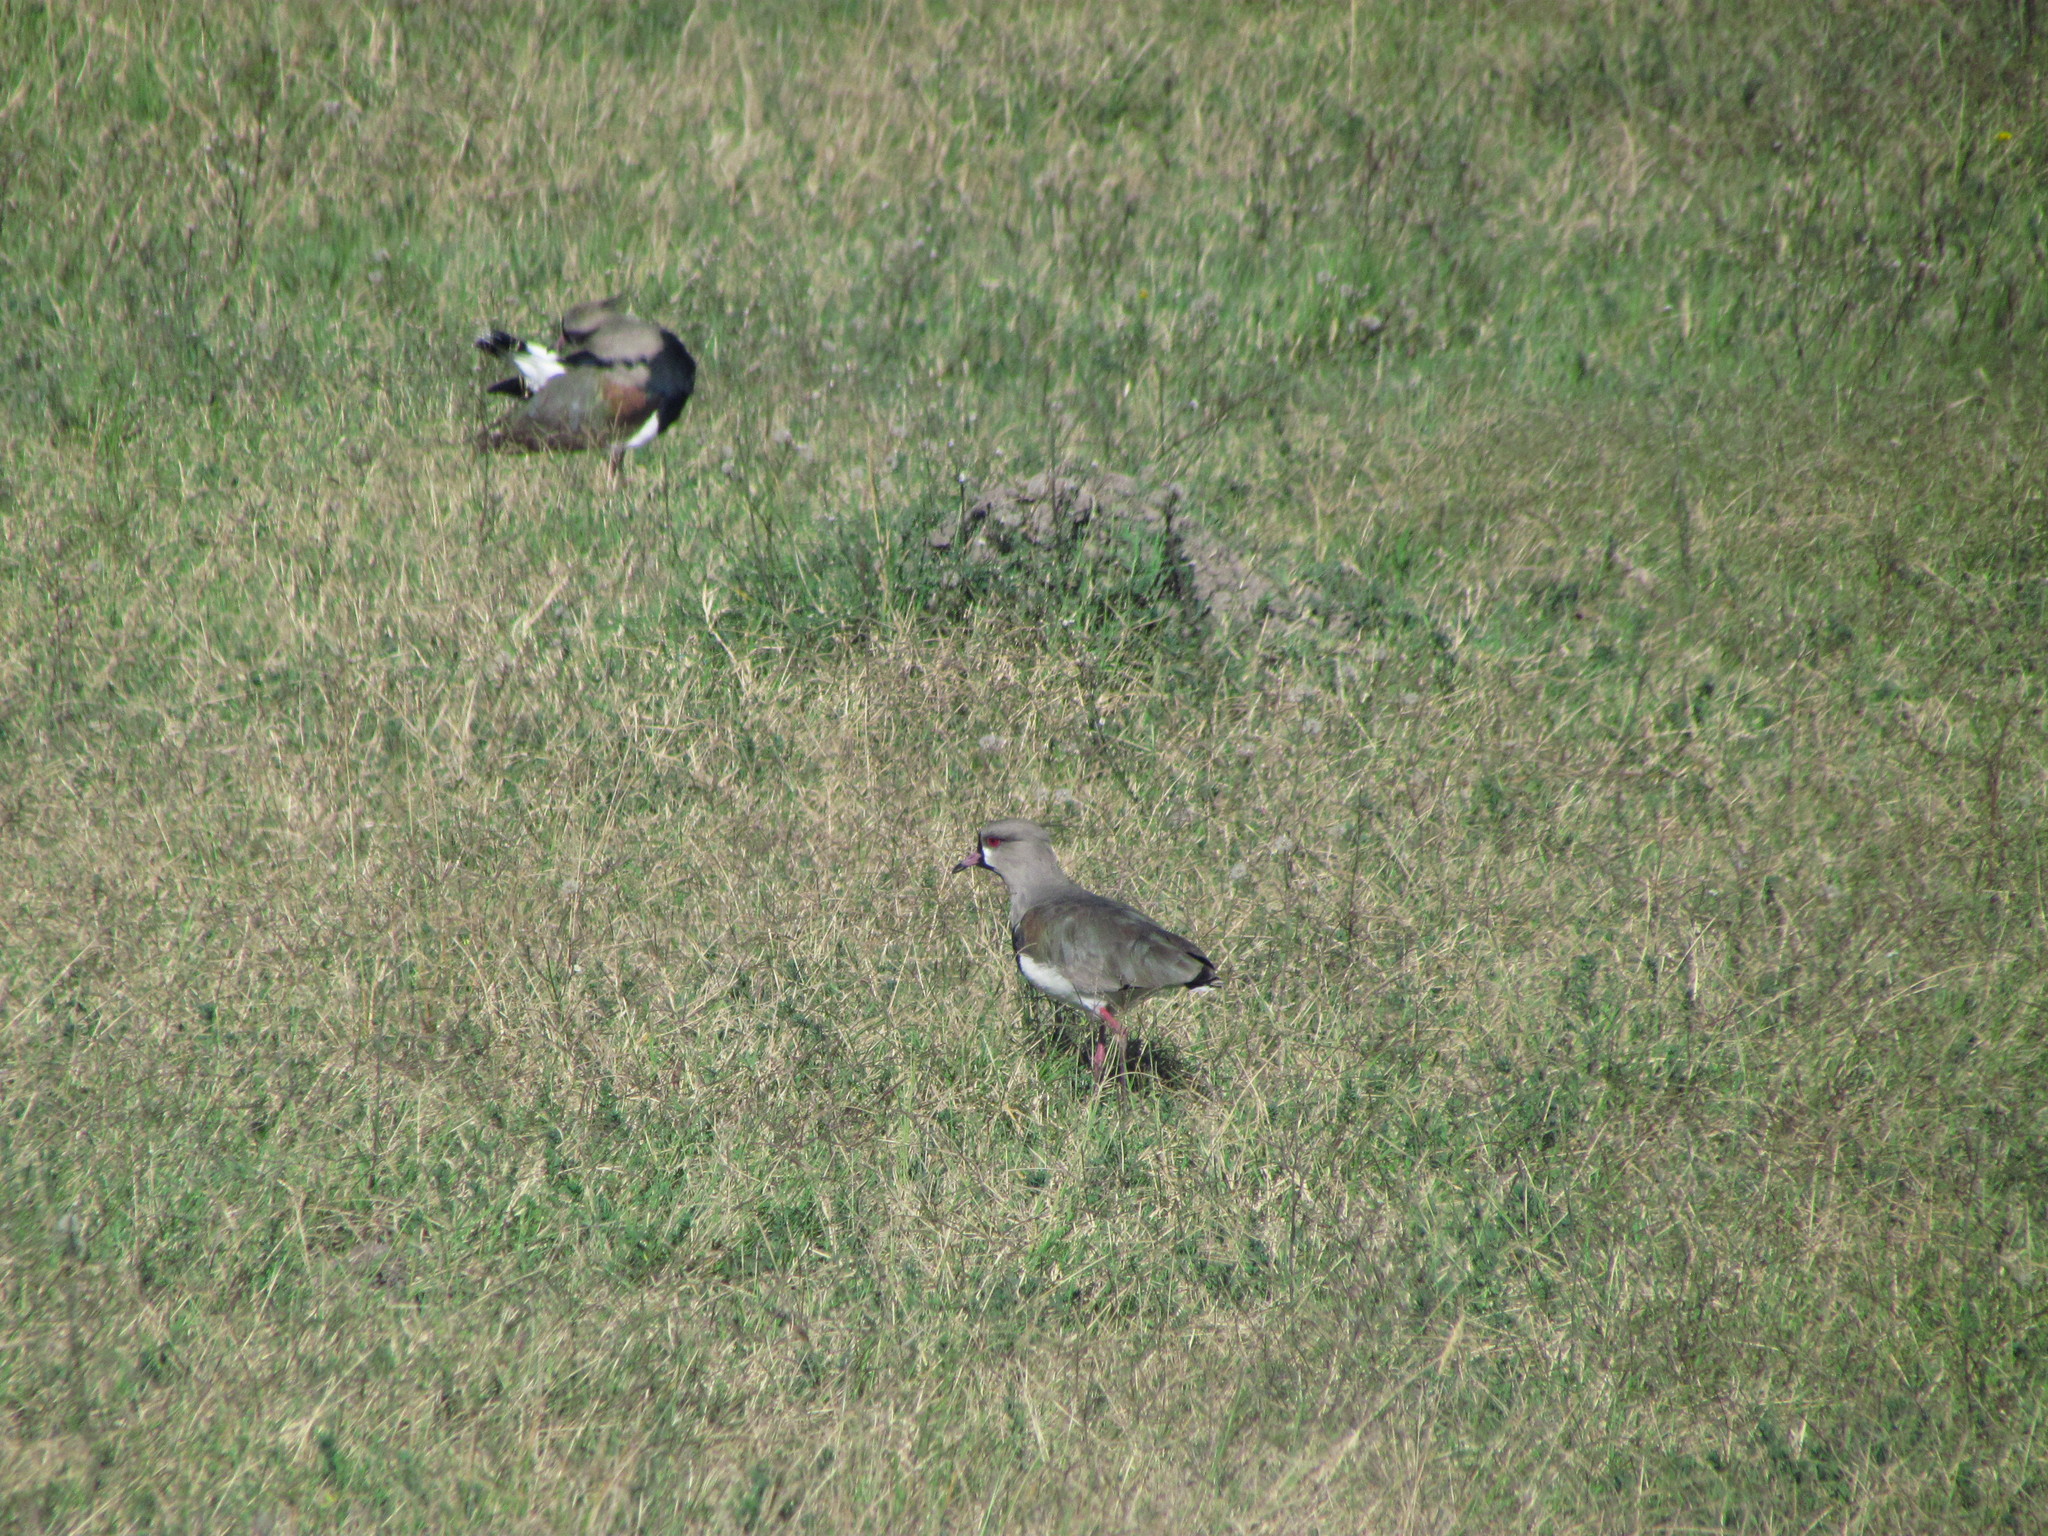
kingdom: Animalia
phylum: Chordata
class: Aves
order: Charadriiformes
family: Charadriidae
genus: Vanellus
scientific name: Vanellus chilensis
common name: Southern lapwing
